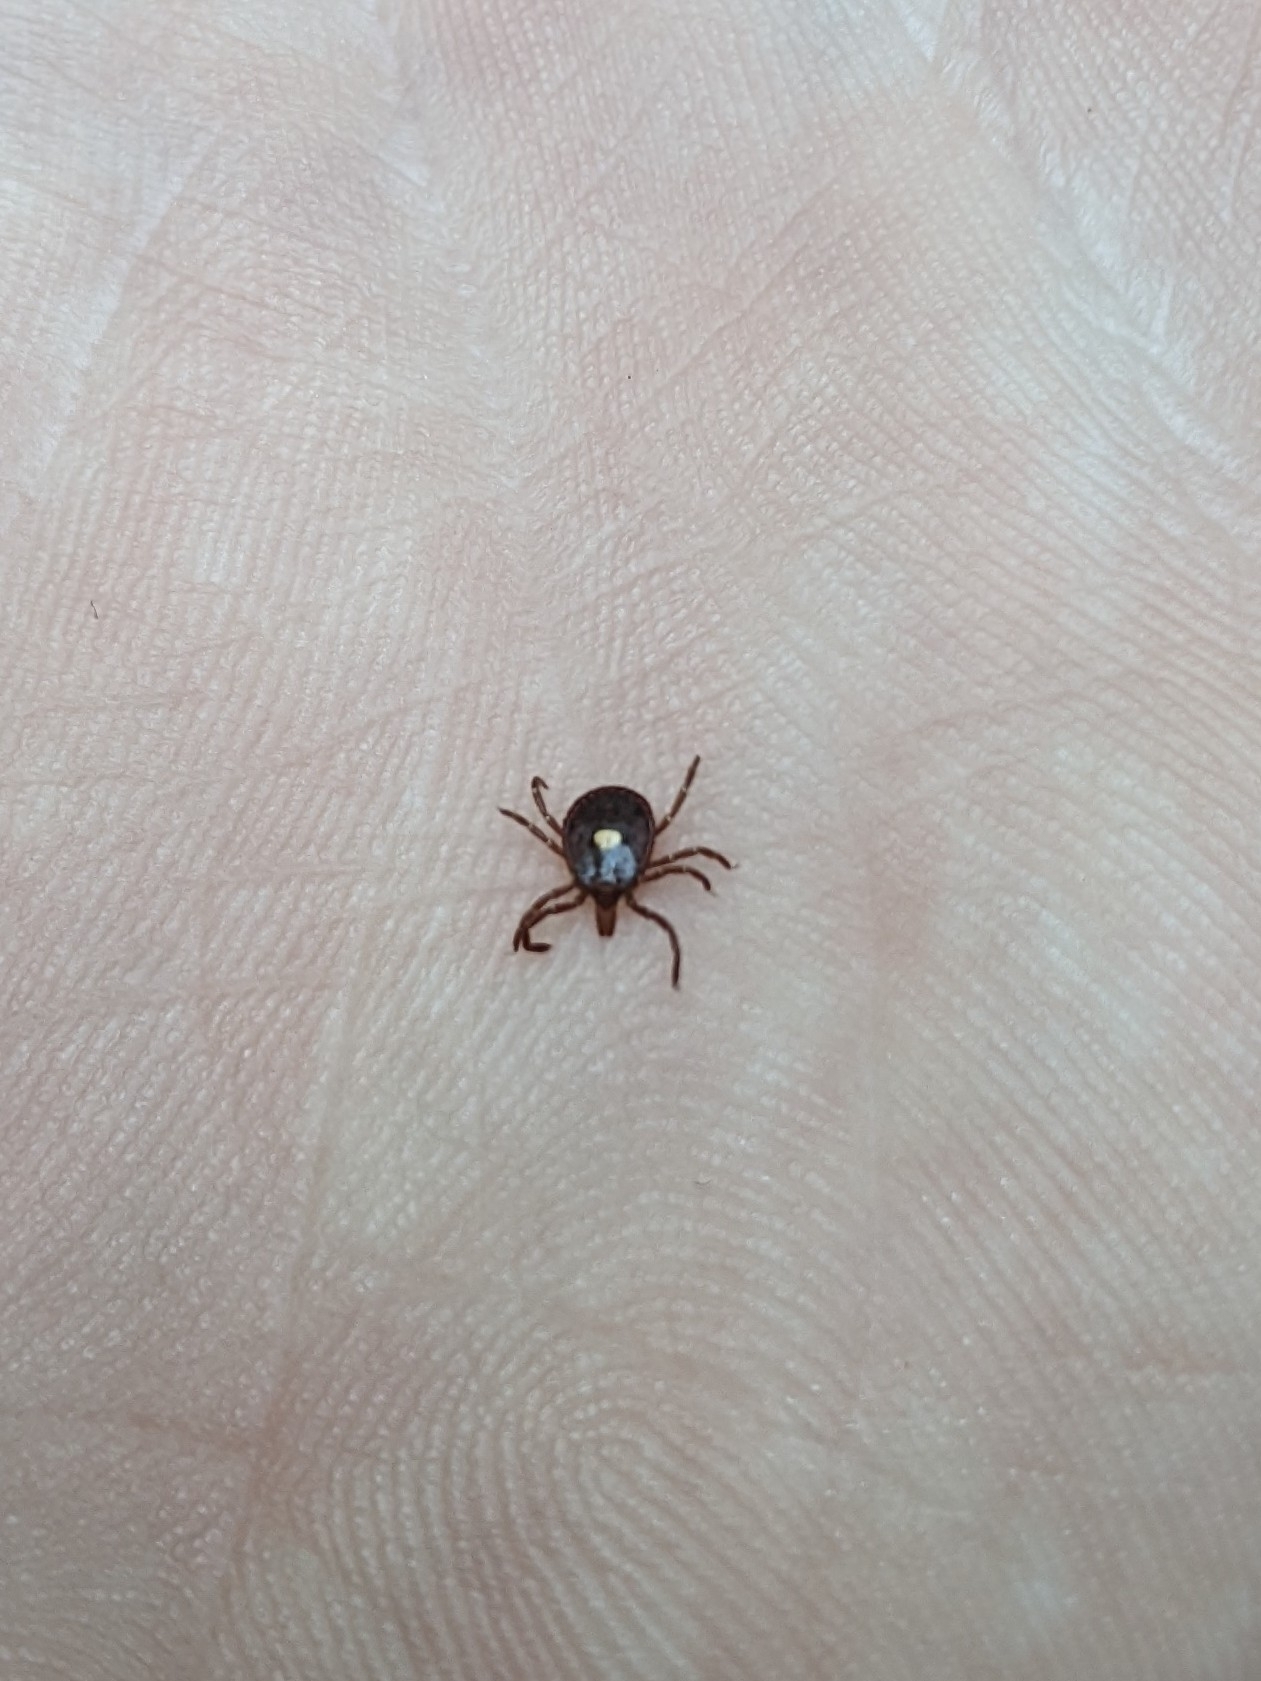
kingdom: Animalia
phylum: Arthropoda
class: Arachnida
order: Ixodida
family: Ixodidae
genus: Amblyomma
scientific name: Amblyomma americanum
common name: Lone star tick
